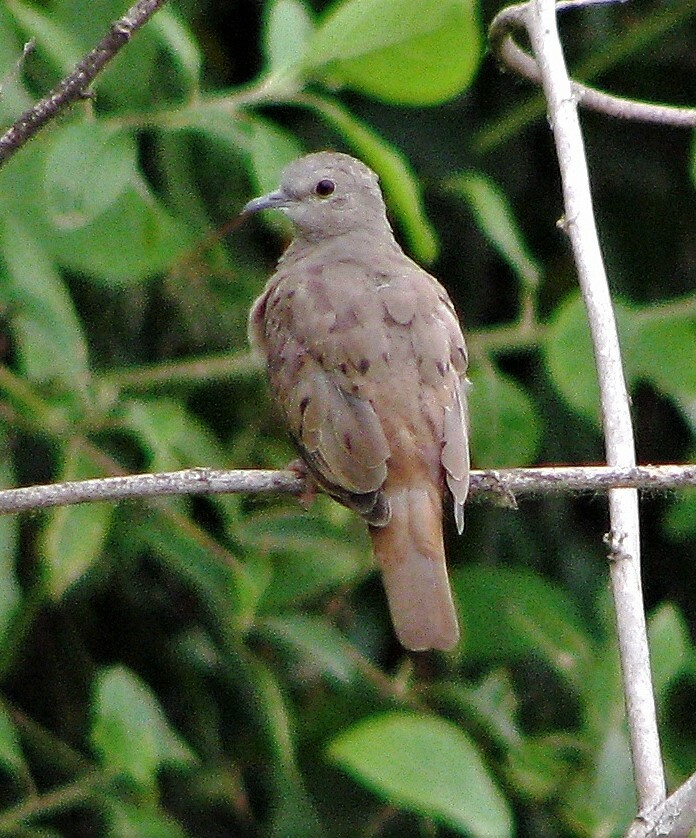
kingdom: Animalia
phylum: Chordata
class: Aves
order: Columbiformes
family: Columbidae
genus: Columbina
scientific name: Columbina talpacoti
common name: Ruddy ground dove
